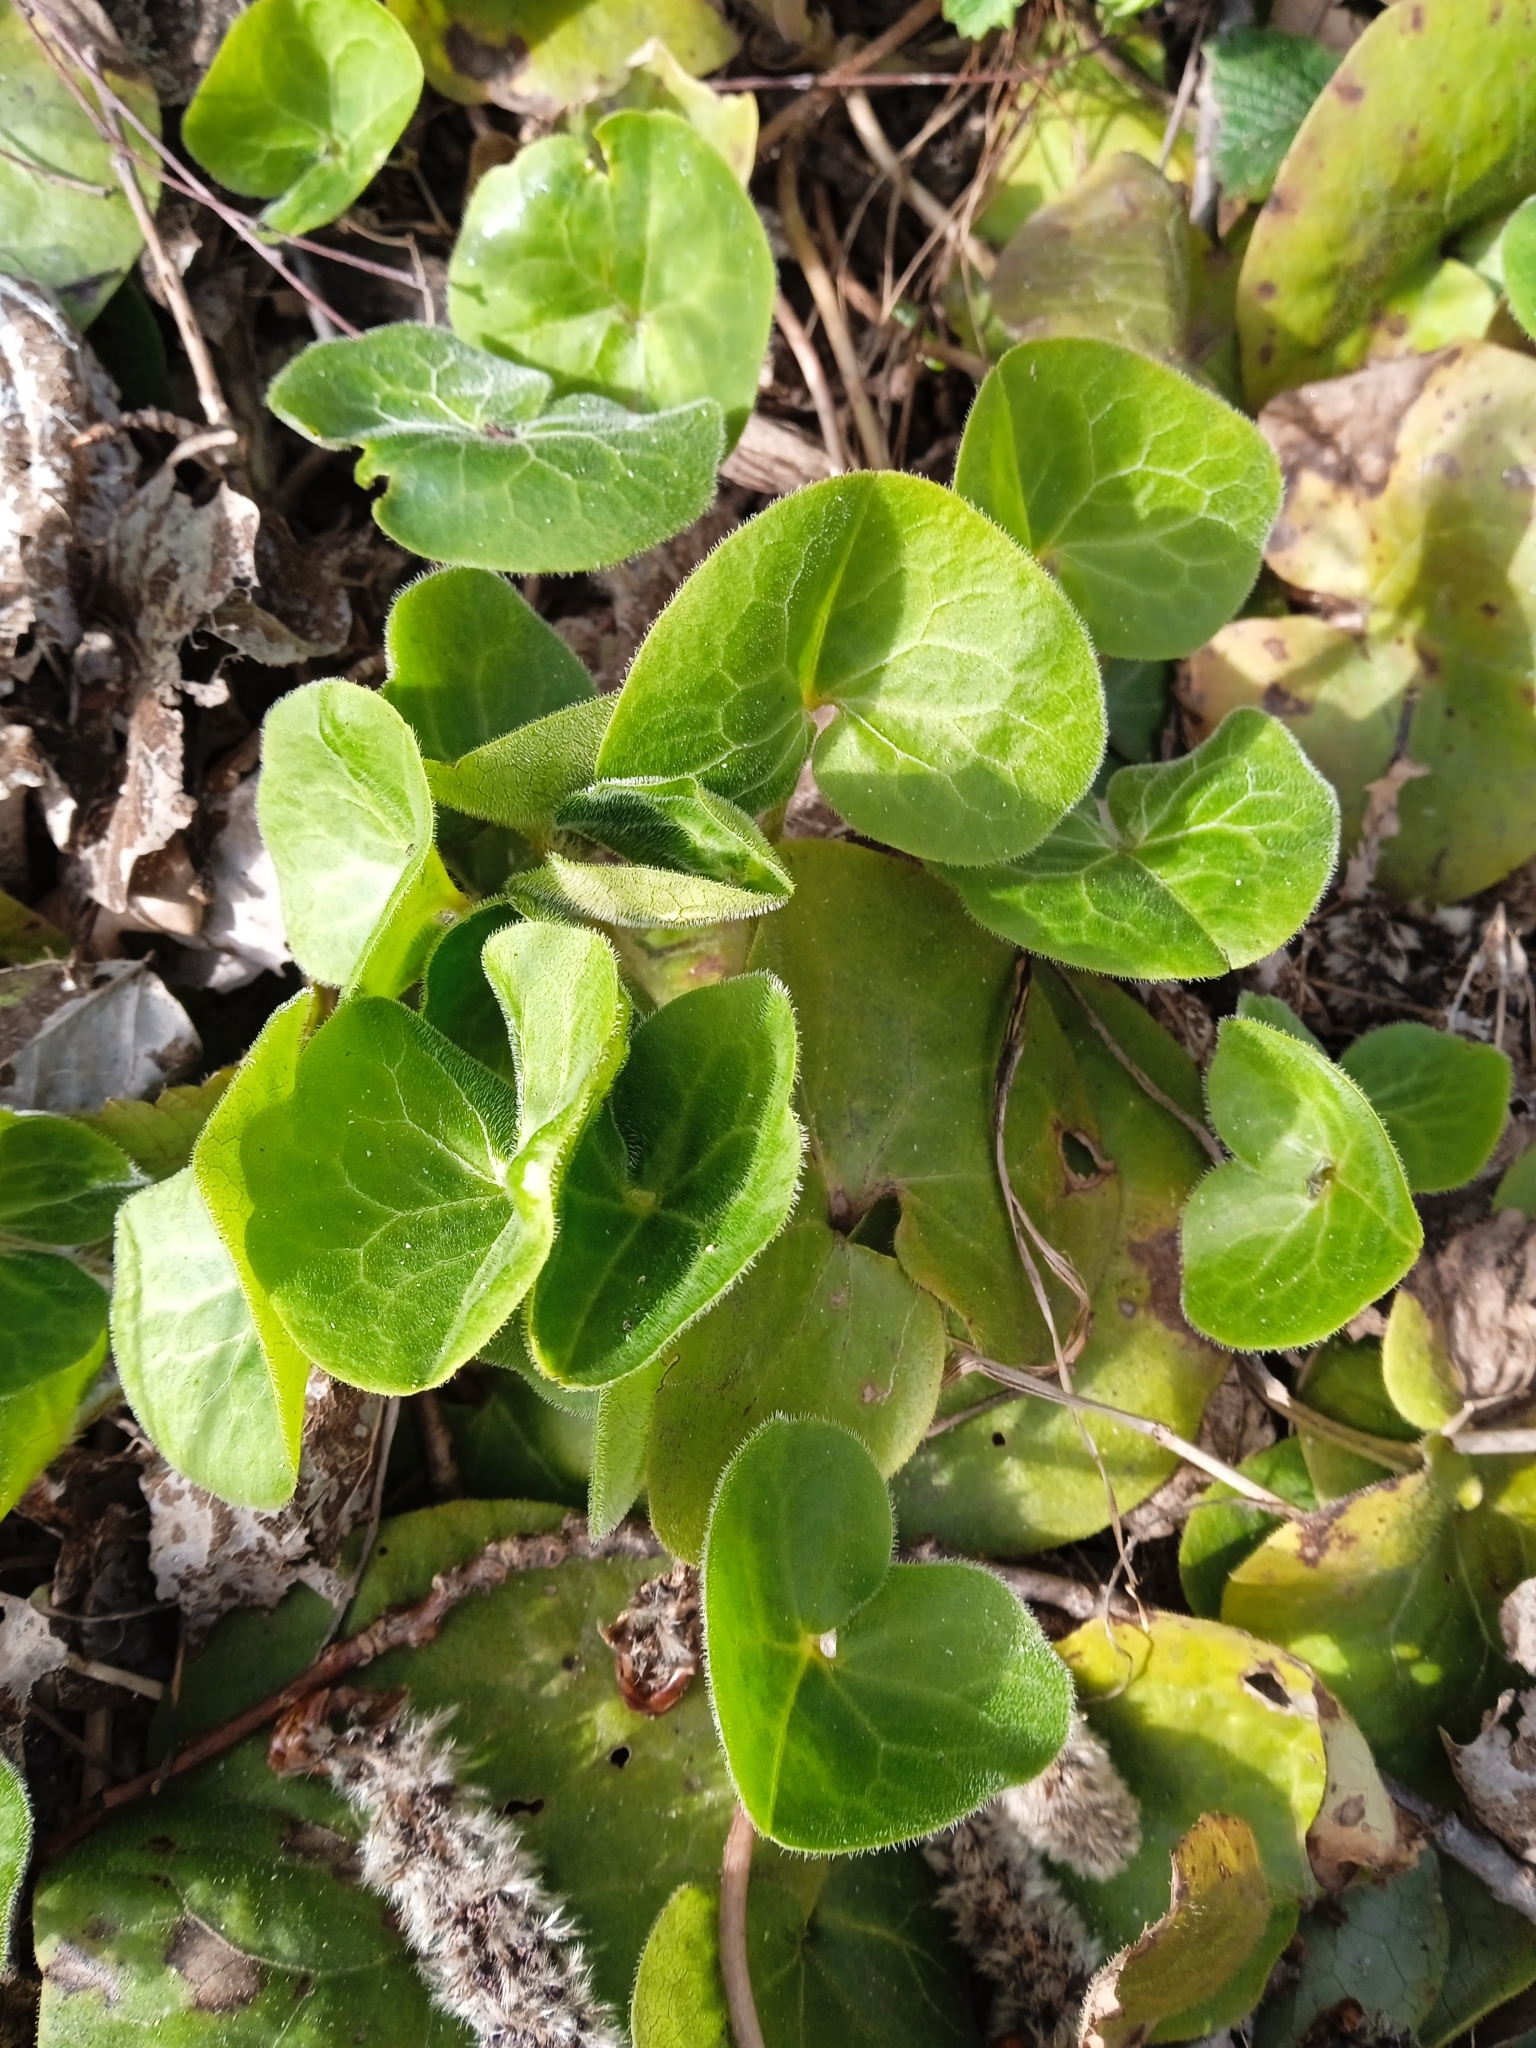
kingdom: Plantae
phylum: Tracheophyta
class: Magnoliopsida
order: Piperales
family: Aristolochiaceae
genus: Asarum
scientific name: Asarum europaeum
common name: Asarabacca
